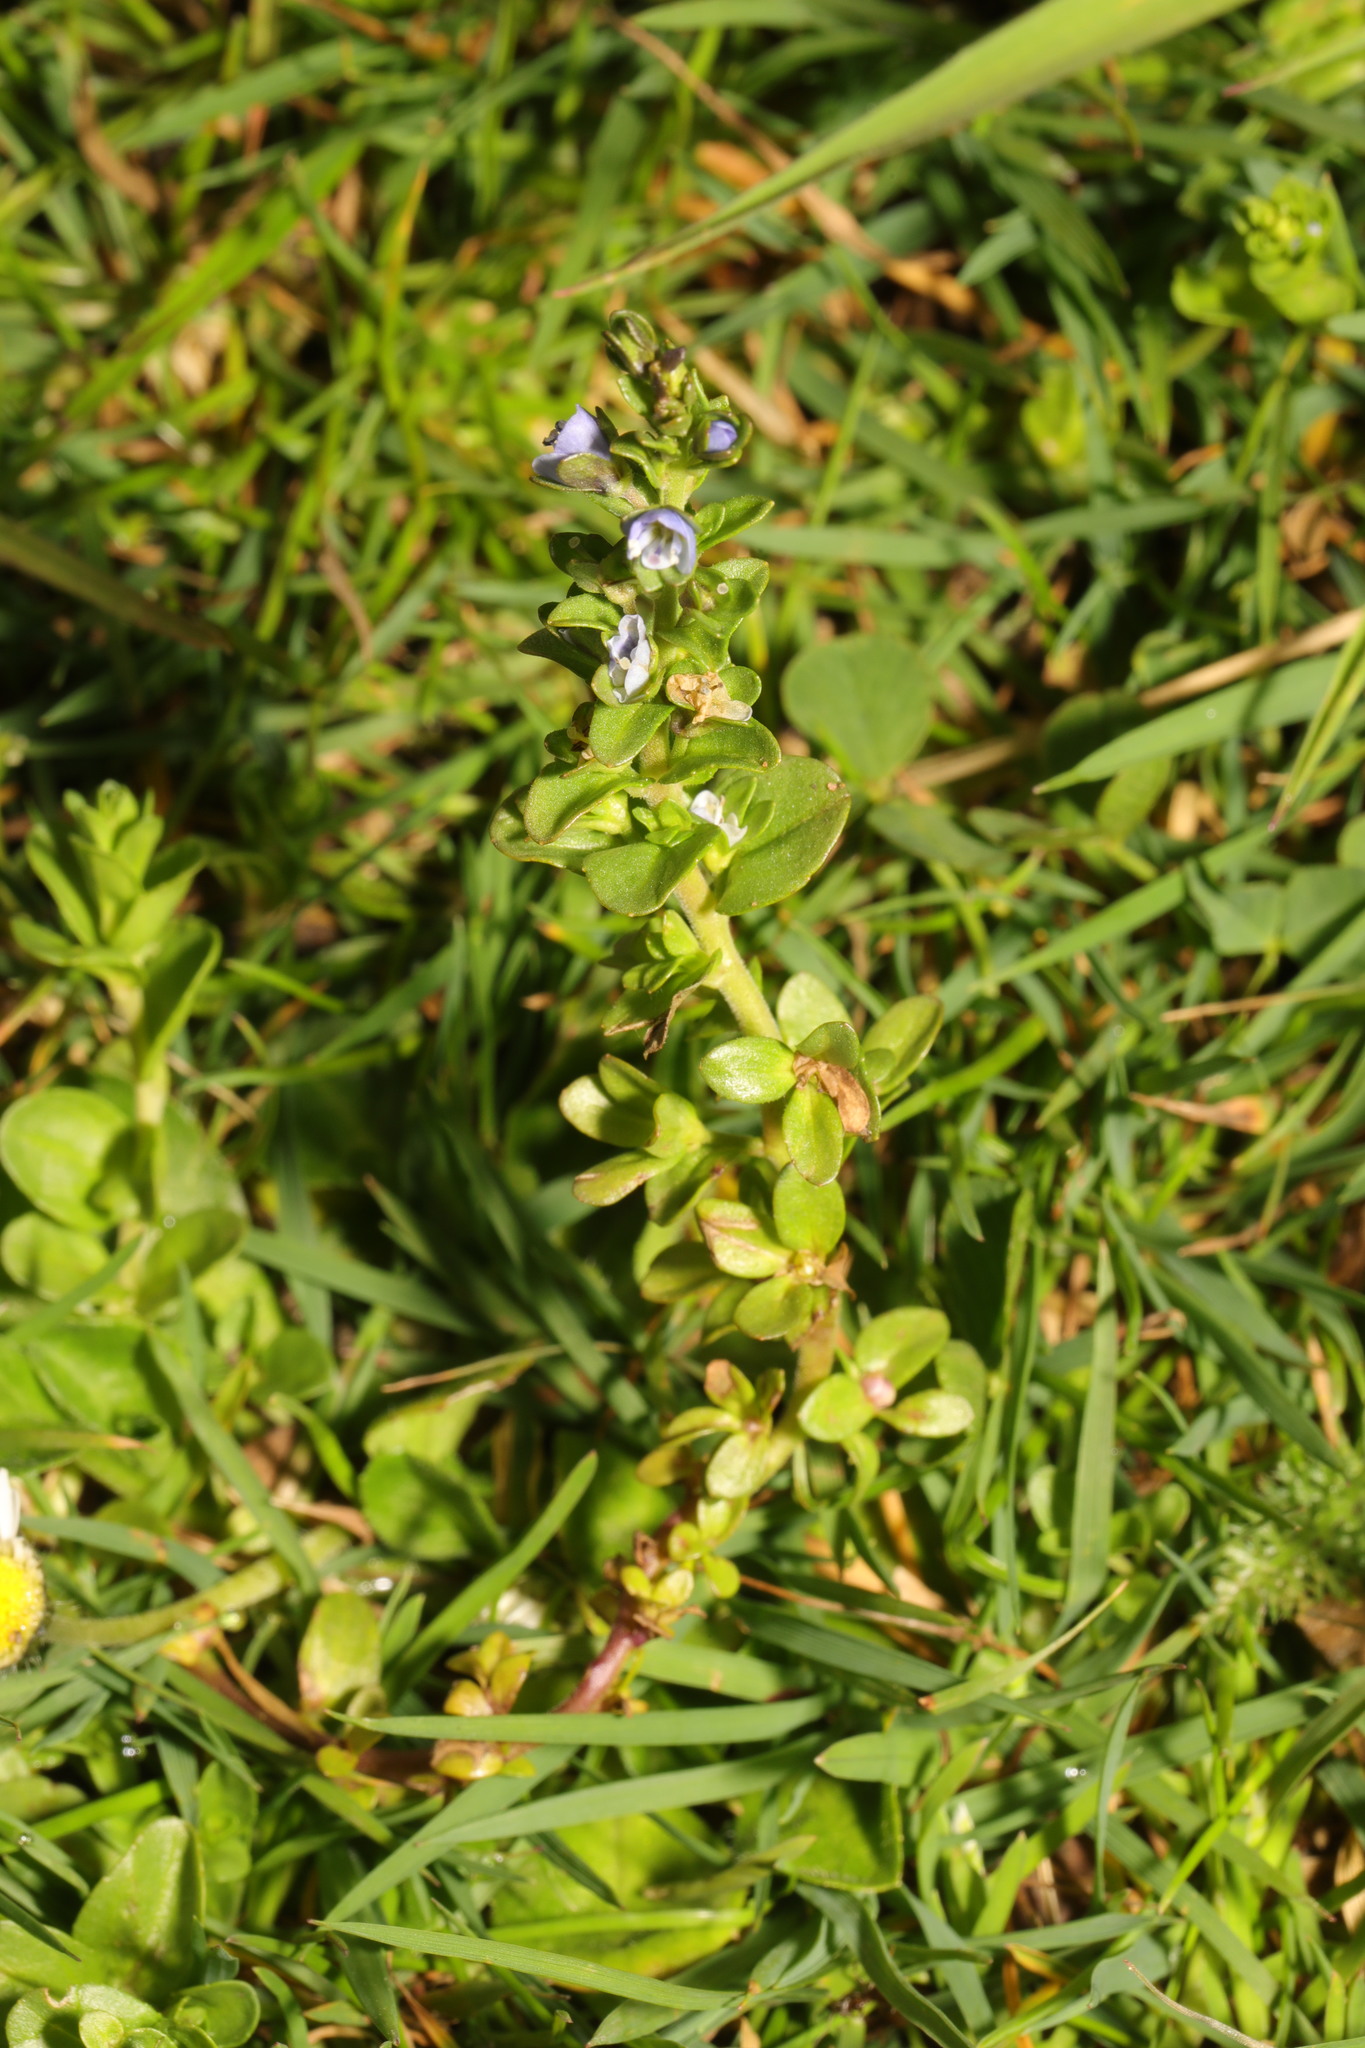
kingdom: Plantae
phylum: Tracheophyta
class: Magnoliopsida
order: Lamiales
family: Plantaginaceae
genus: Veronica
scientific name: Veronica serpyllifolia
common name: Thyme-leaved speedwell
